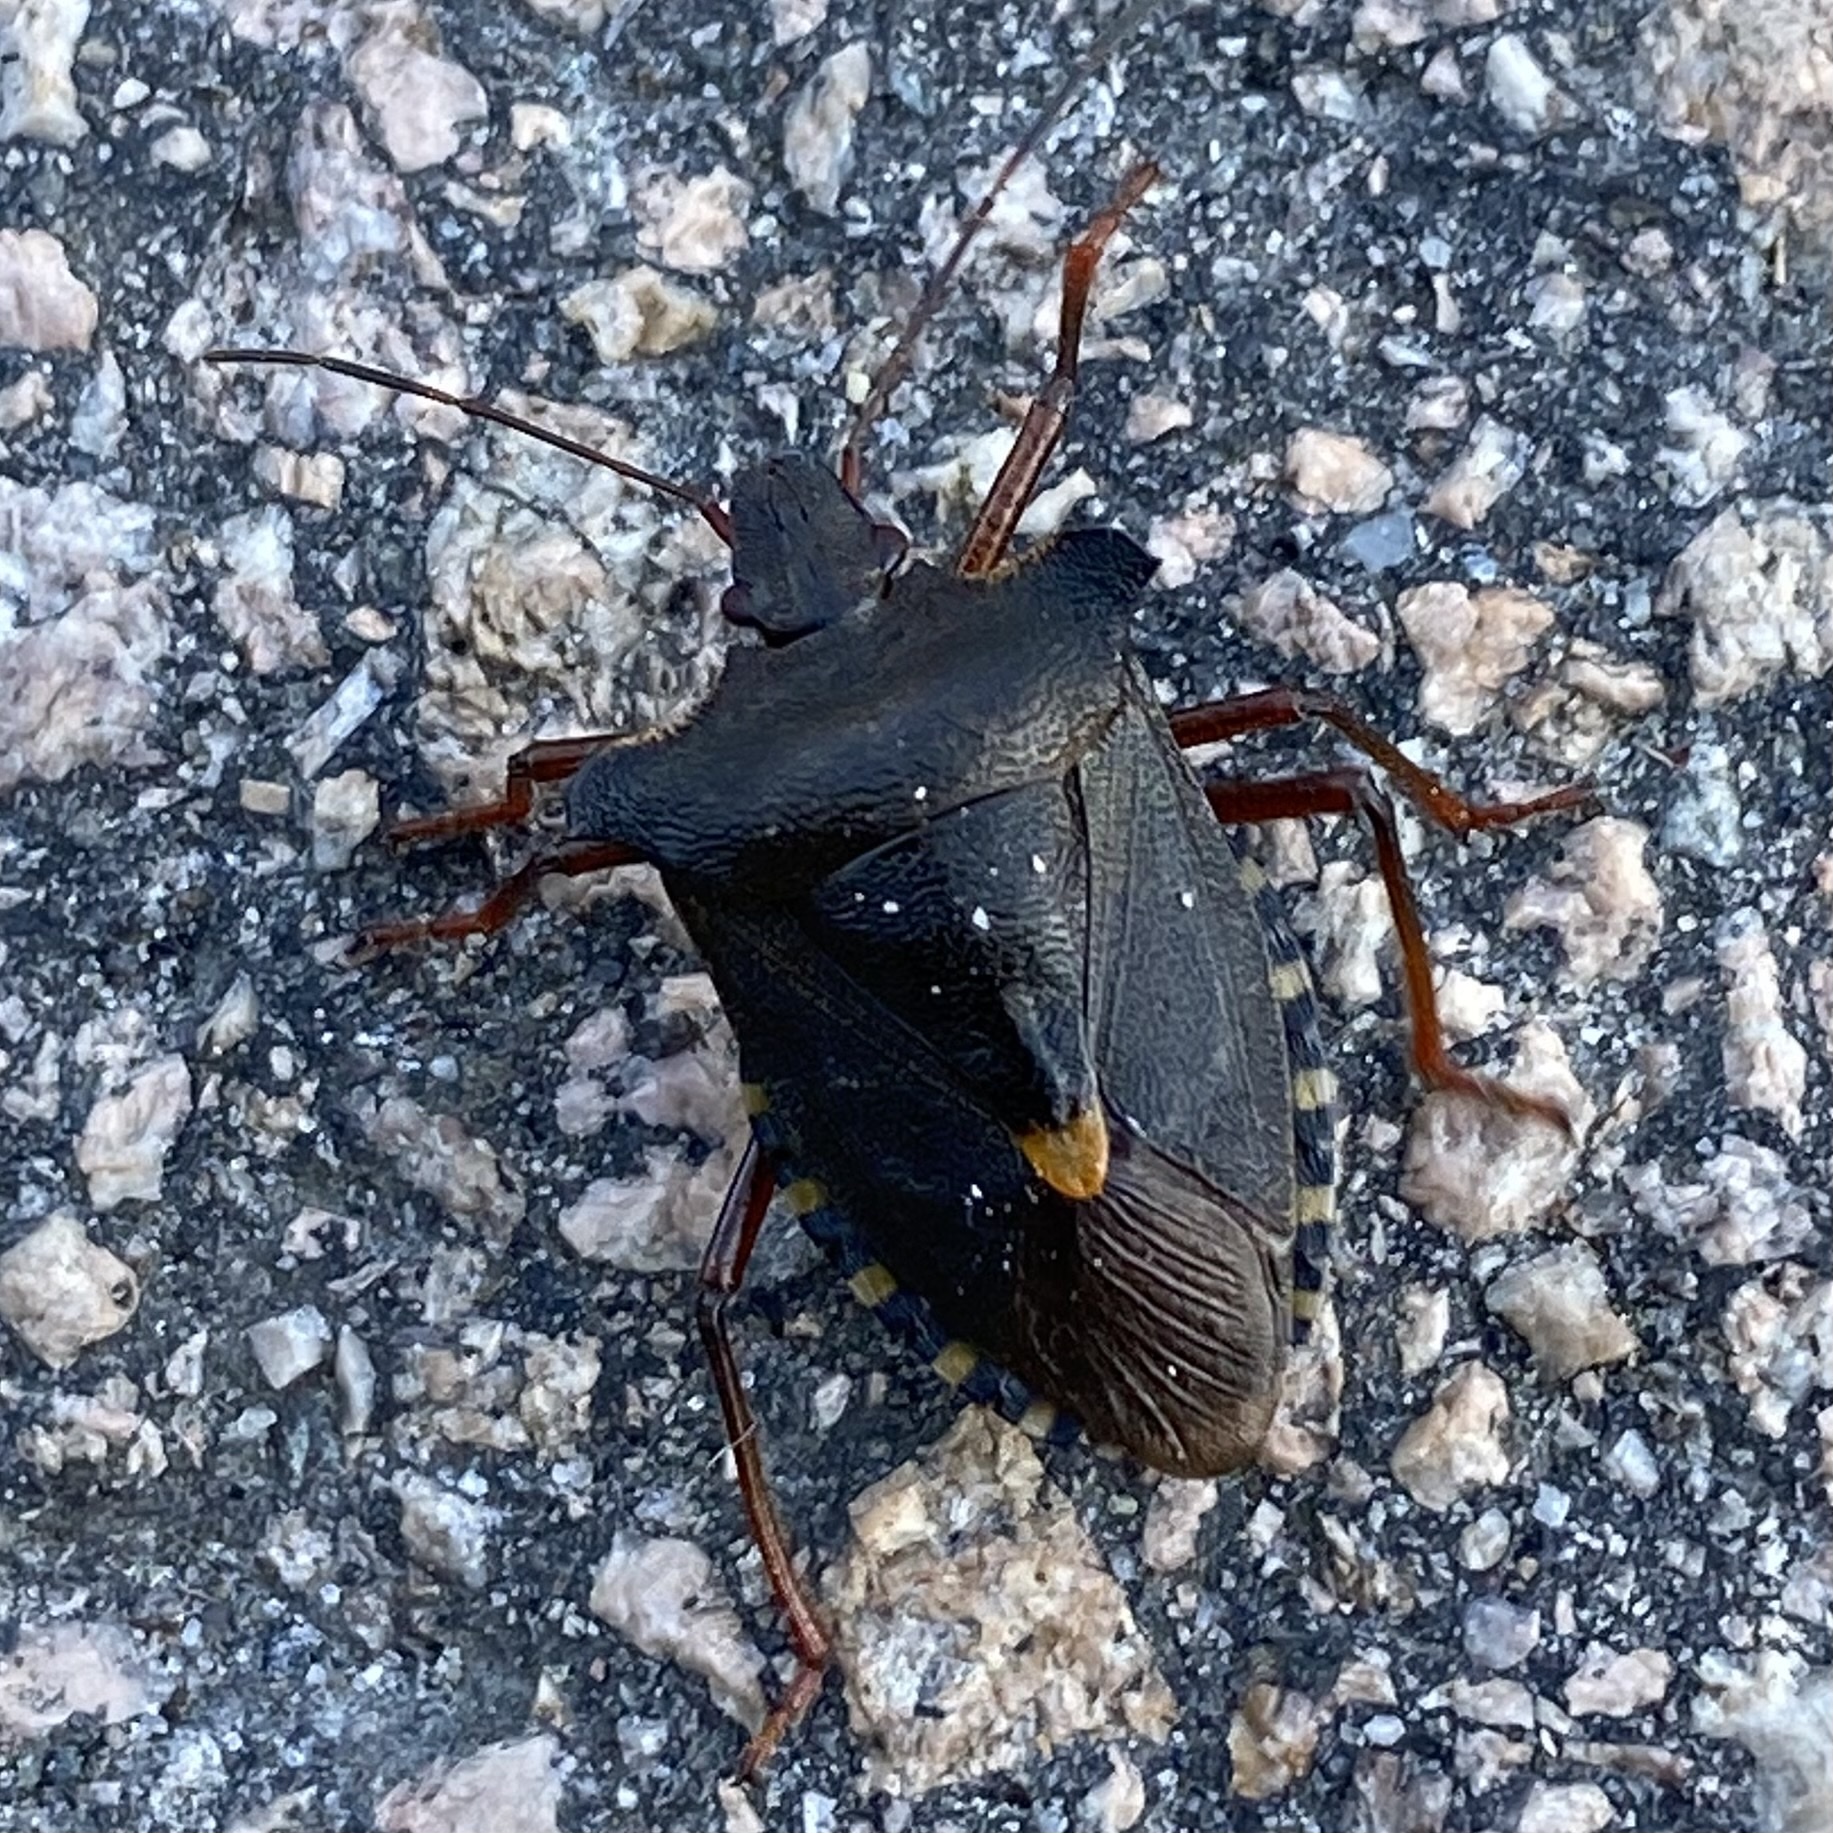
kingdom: Animalia
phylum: Arthropoda
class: Insecta
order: Hemiptera
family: Pentatomidae
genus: Pentatoma
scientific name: Pentatoma rufipes
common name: Forest bug
